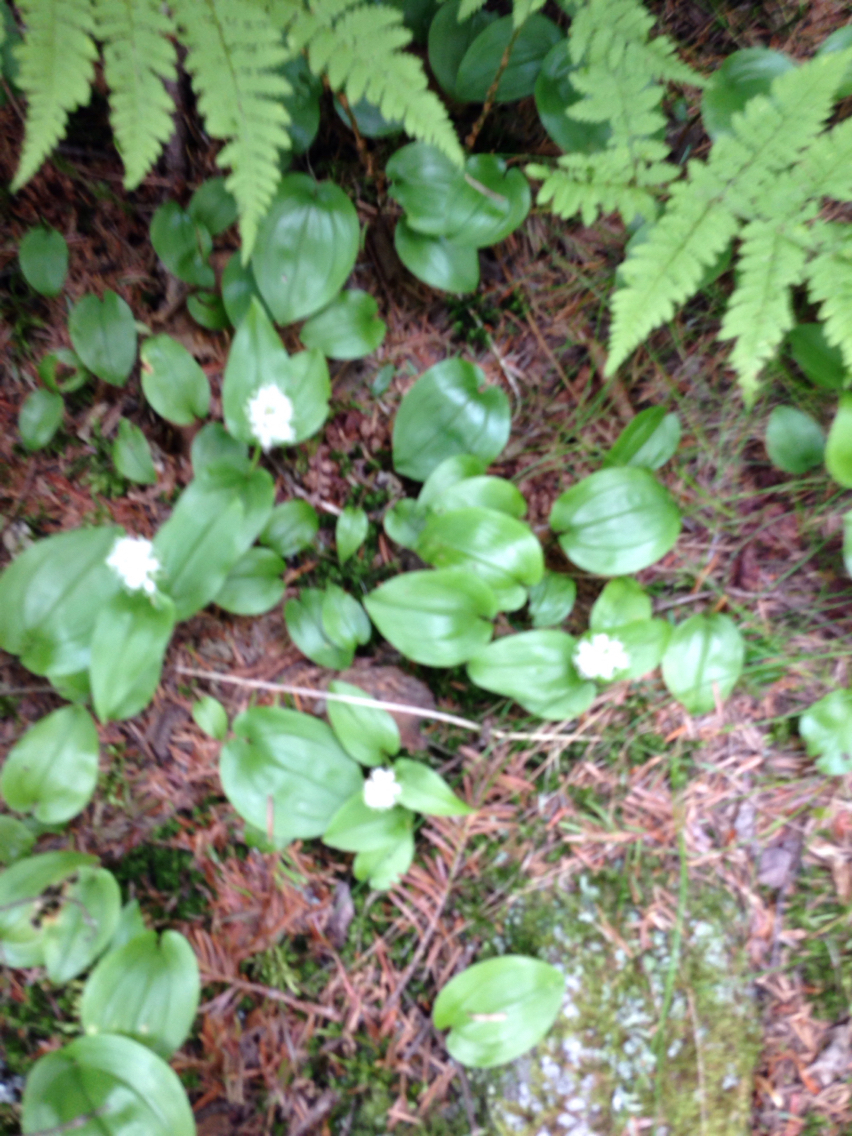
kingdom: Plantae
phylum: Tracheophyta
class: Liliopsida
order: Asparagales
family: Asparagaceae
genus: Maianthemum
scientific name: Maianthemum canadense
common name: False lily-of-the-valley
